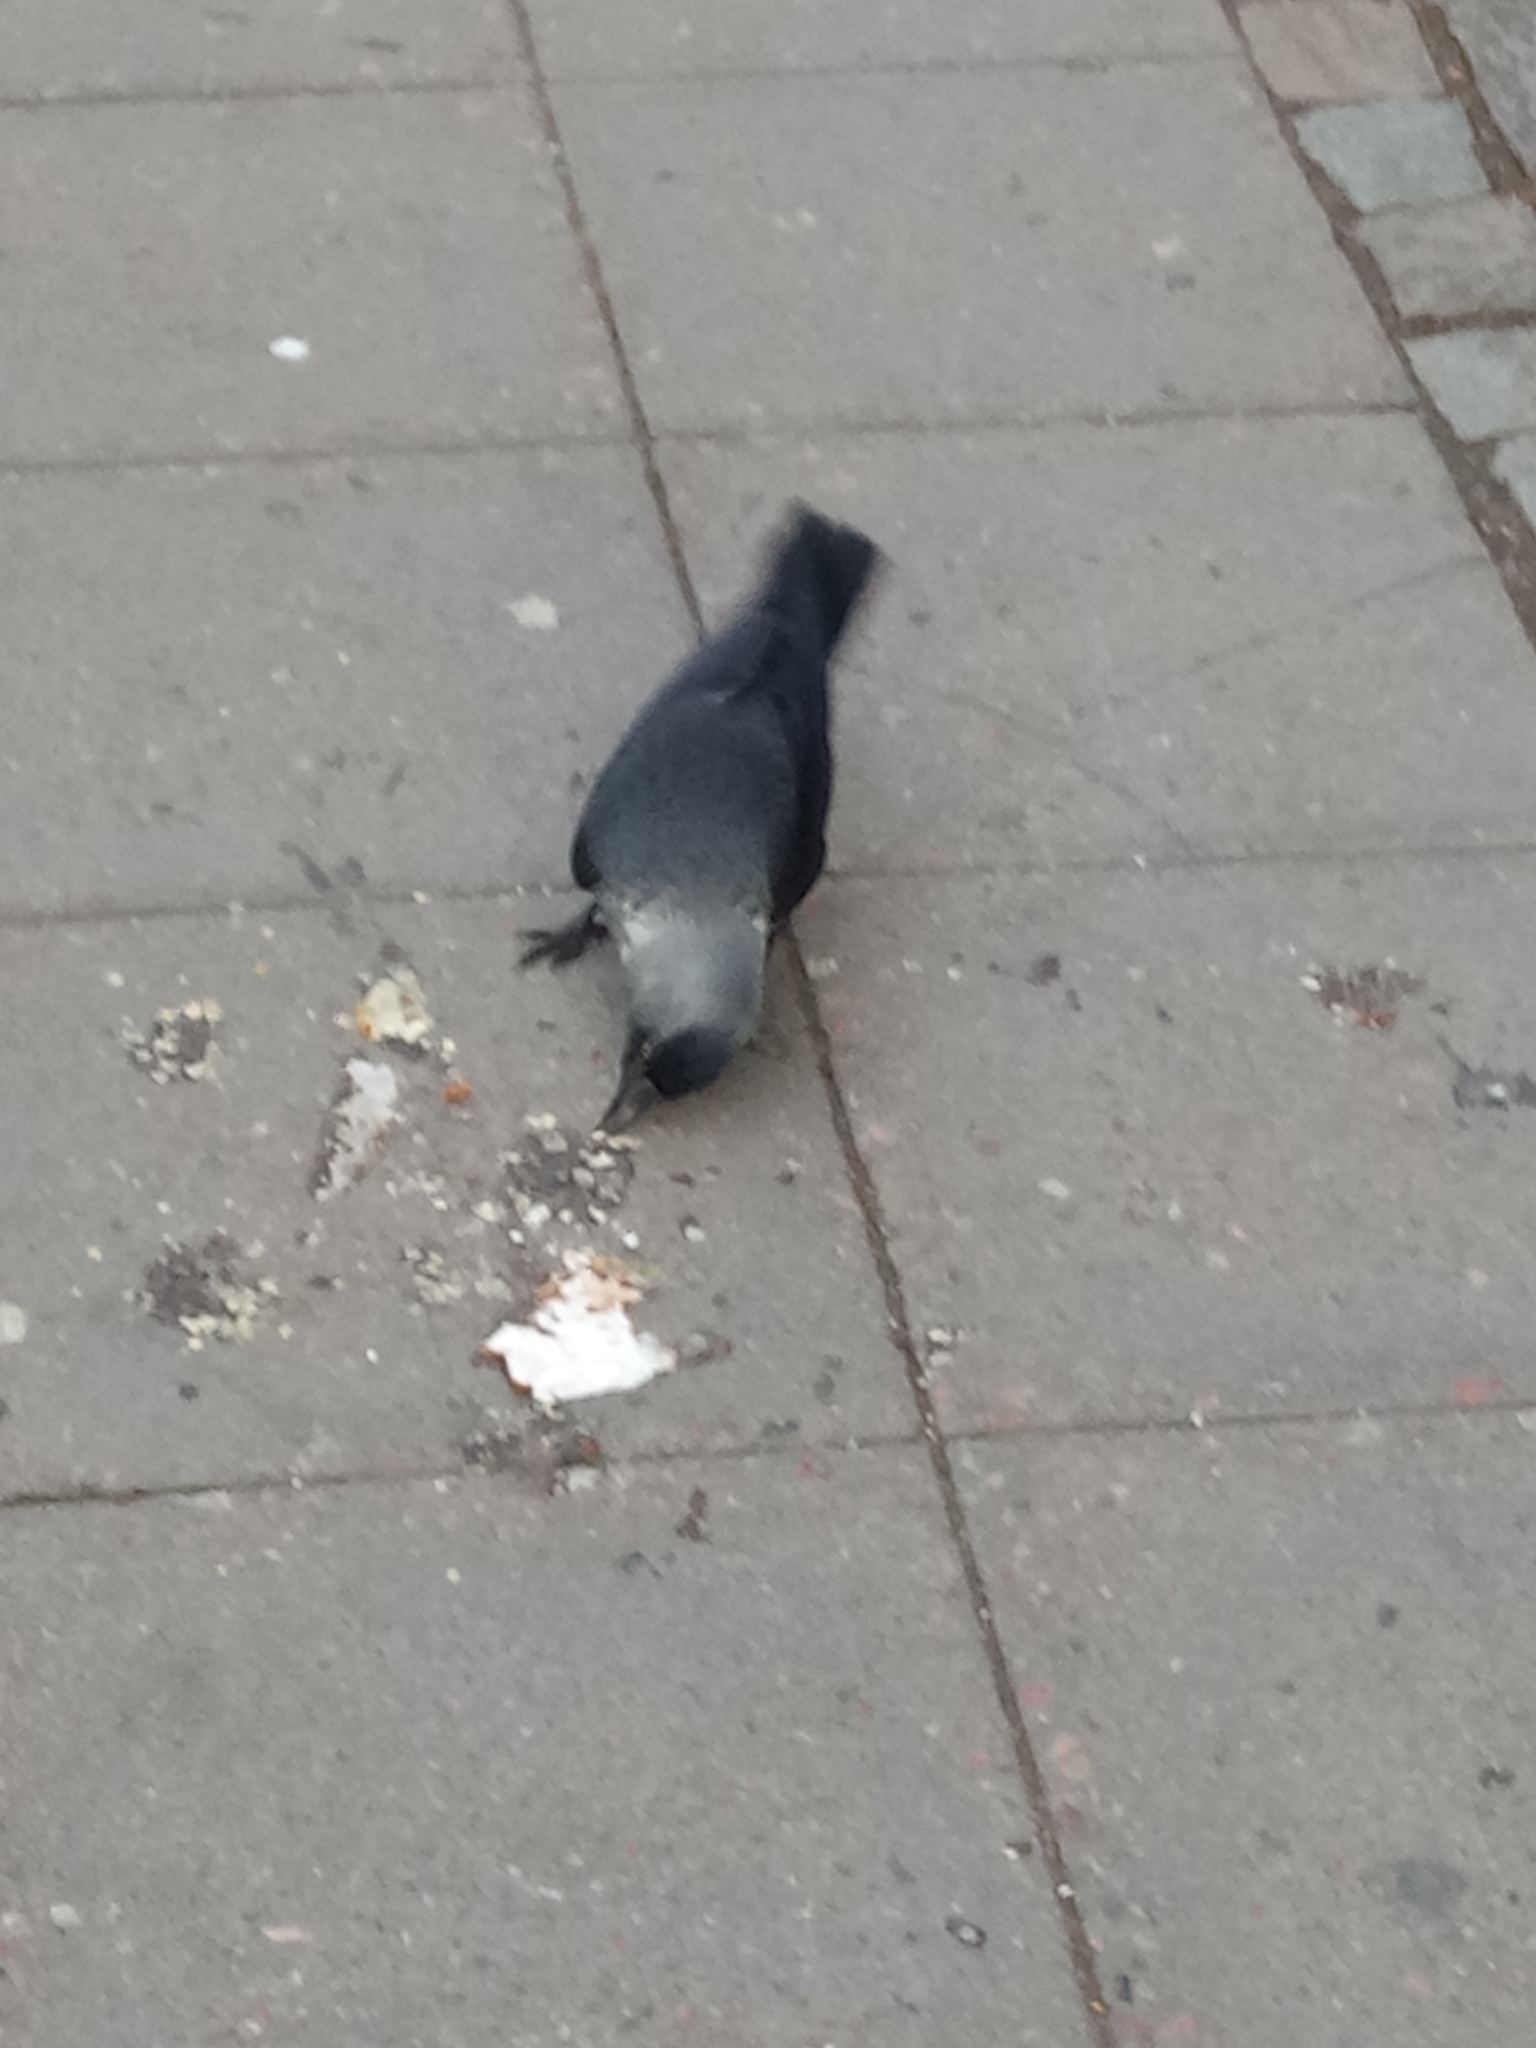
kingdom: Animalia
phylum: Chordata
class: Aves
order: Passeriformes
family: Corvidae
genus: Coloeus
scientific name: Coloeus monedula
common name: Western jackdaw
